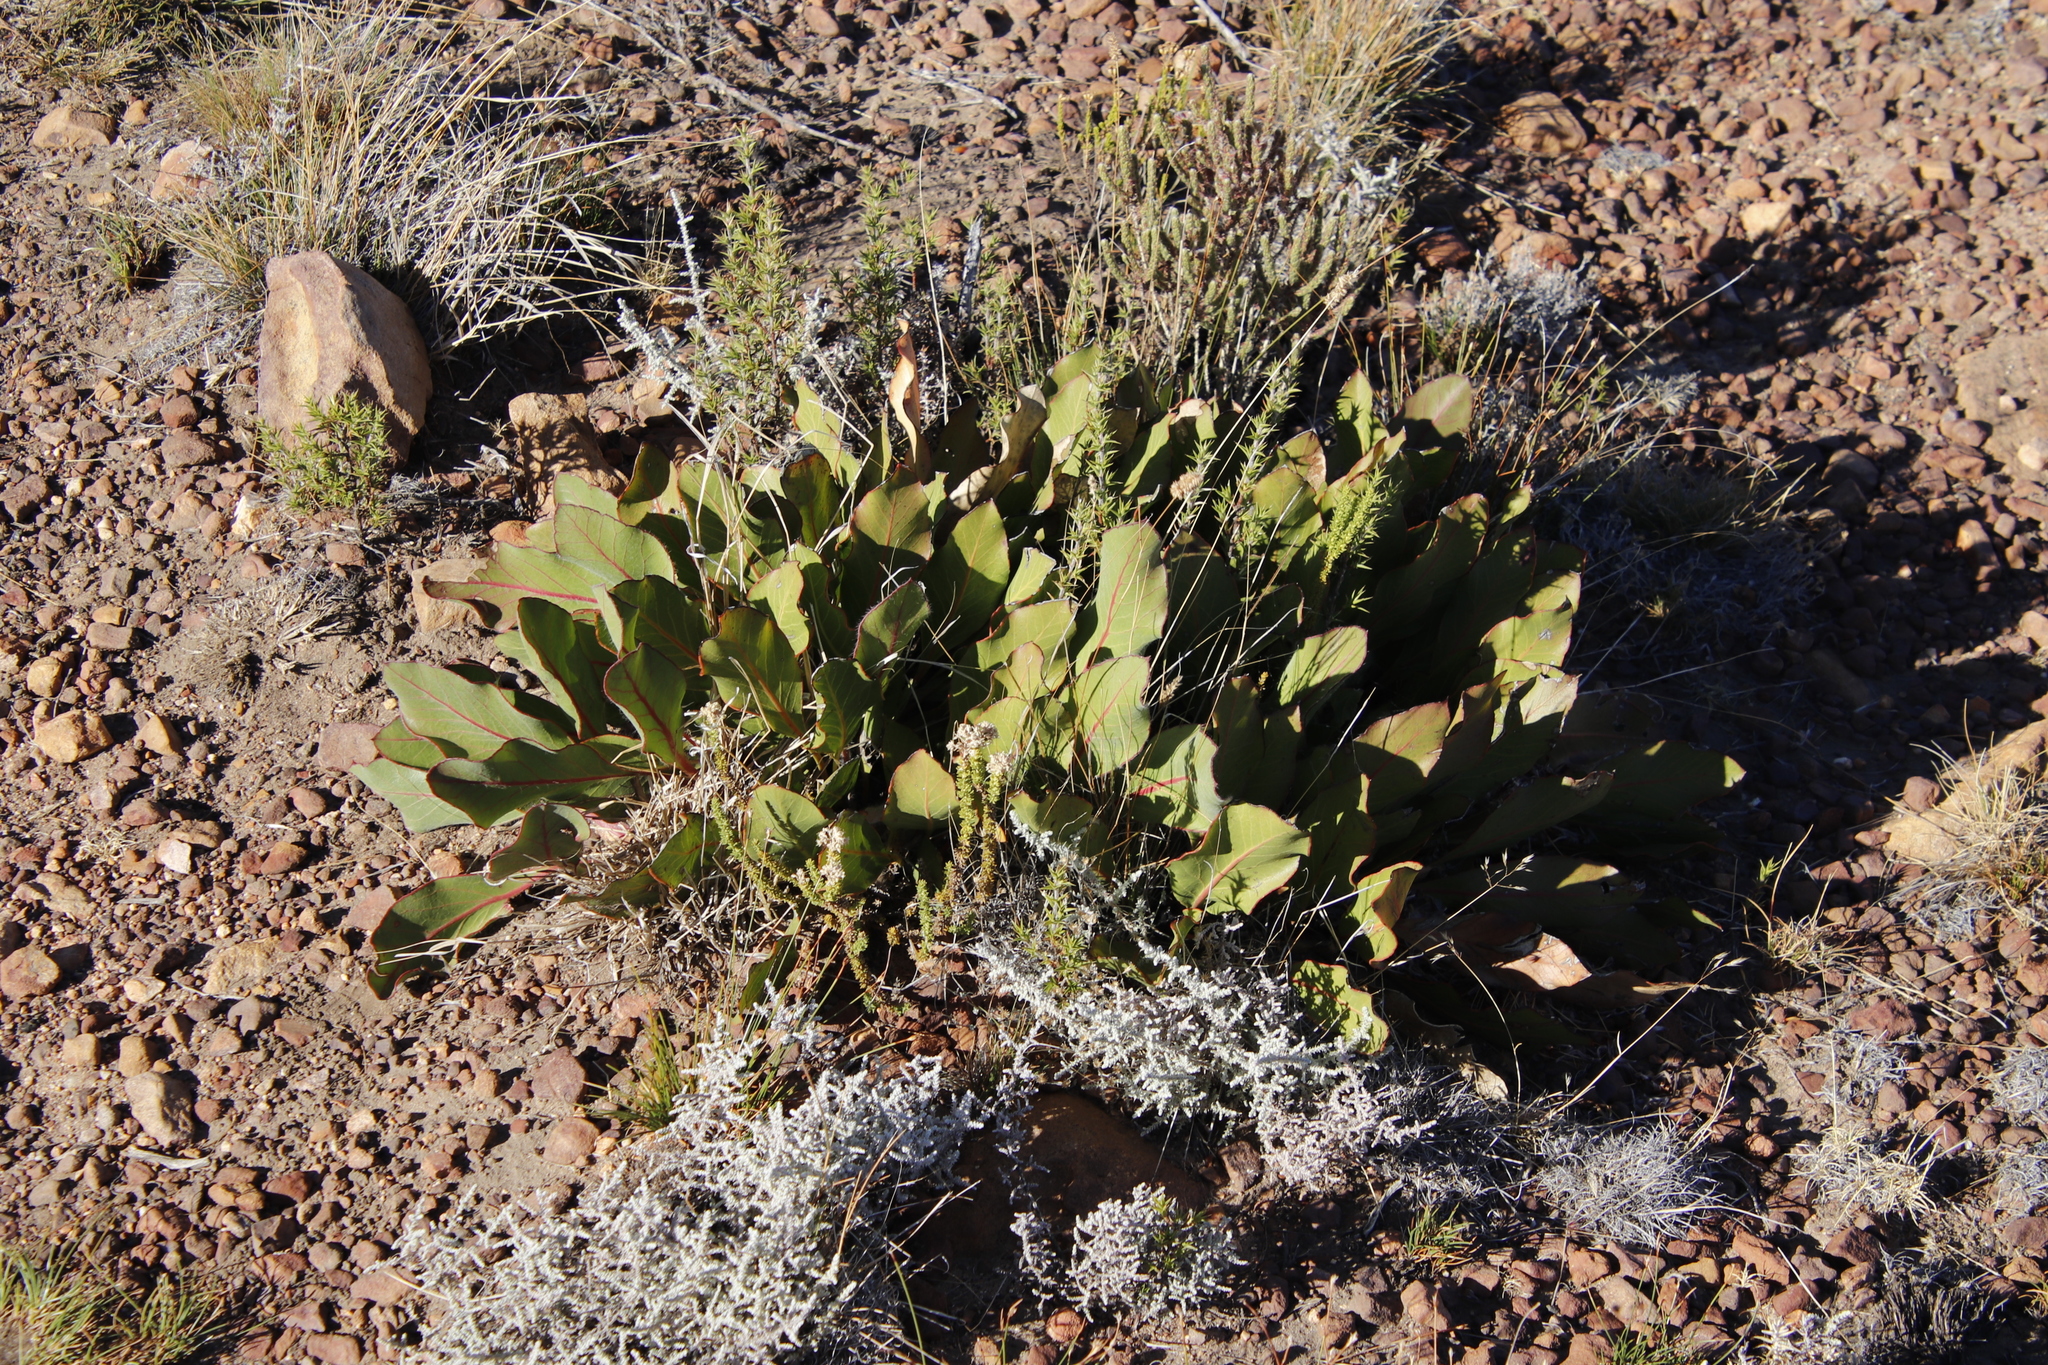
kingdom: Plantae
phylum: Tracheophyta
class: Magnoliopsida
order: Proteales
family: Proteaceae
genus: Protea
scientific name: Protea scolopendriifolia
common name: Harts-tongue-fern sugarbush
